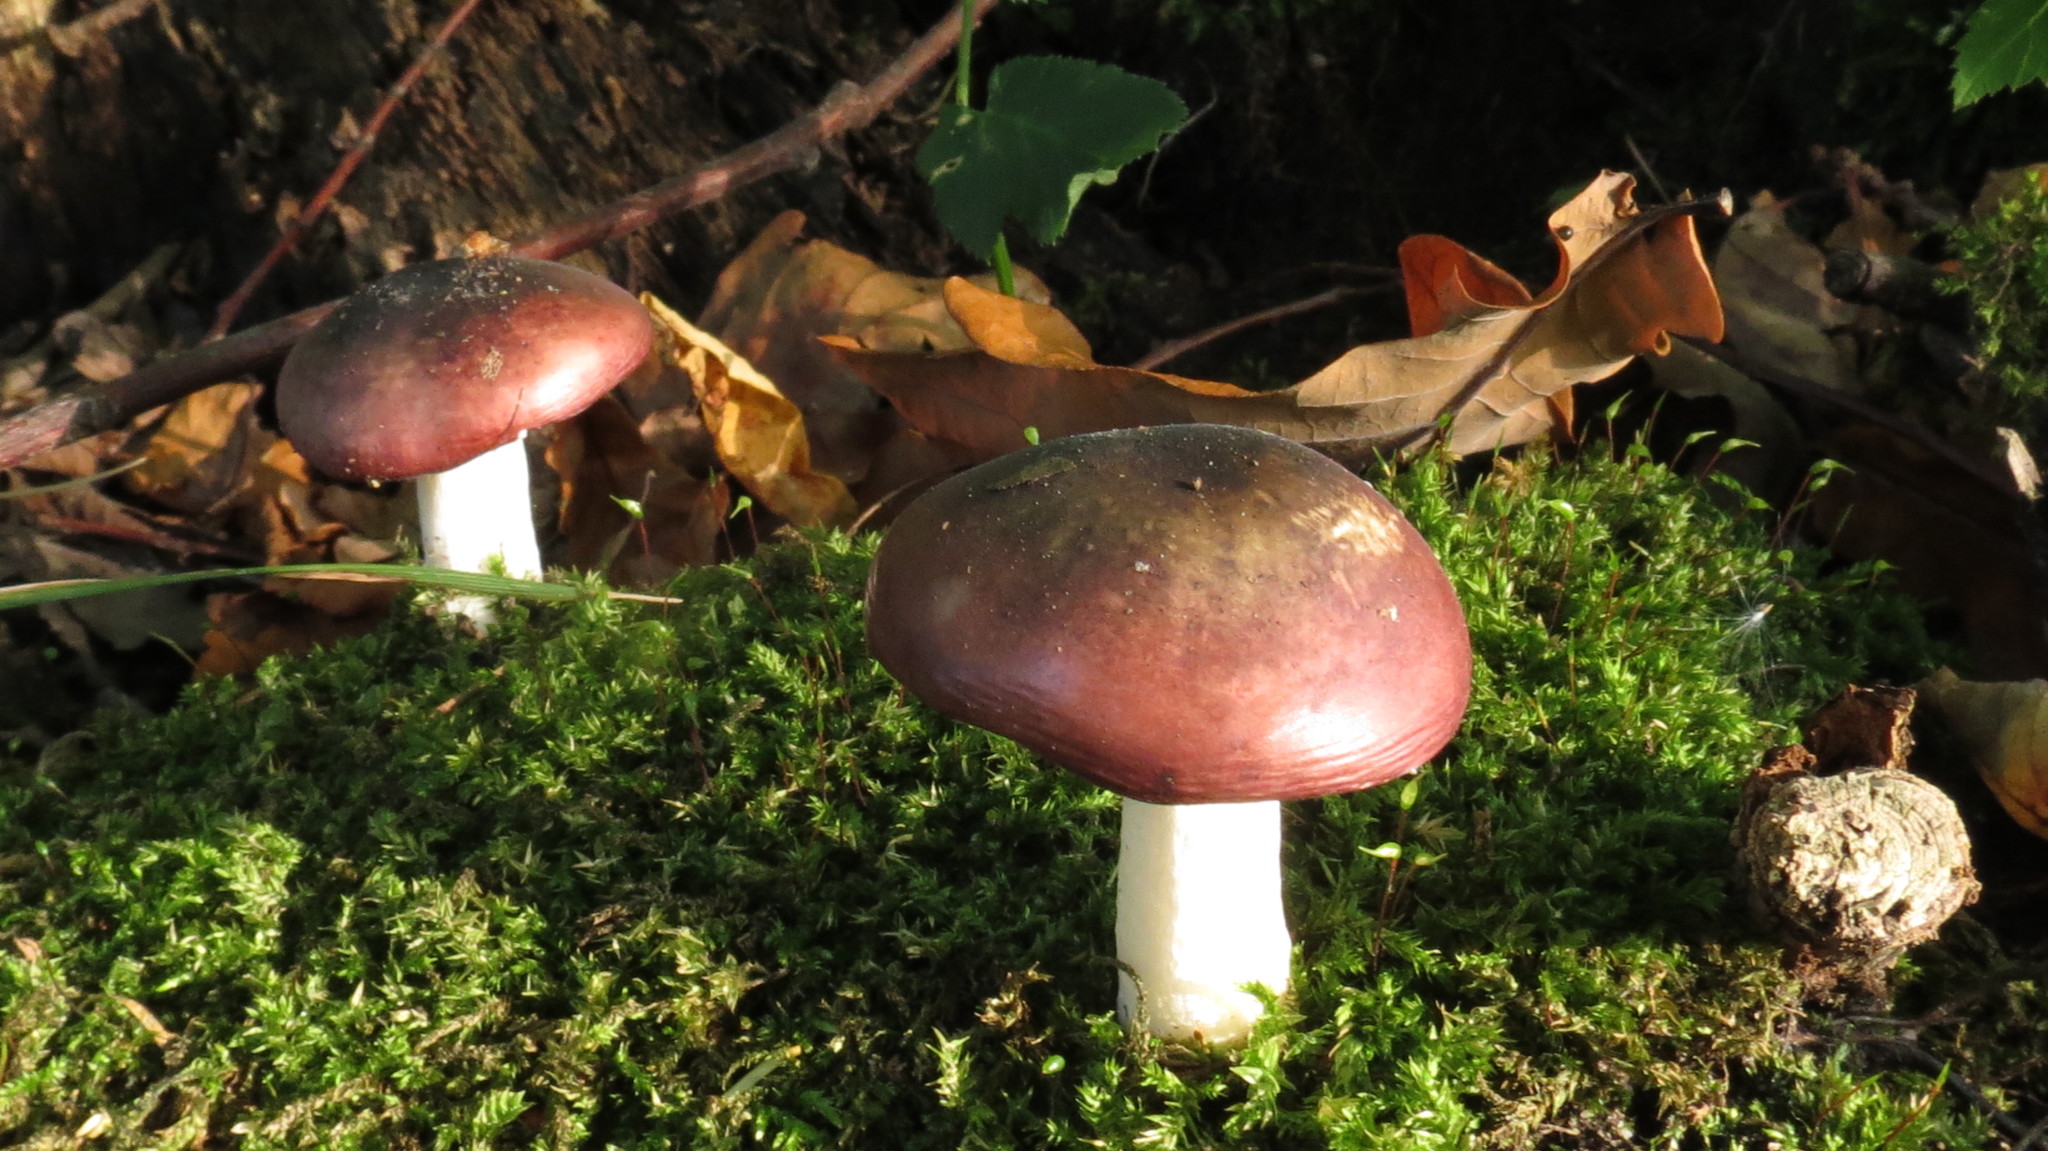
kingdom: Fungi
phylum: Basidiomycota
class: Agaricomycetes
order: Russulales
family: Russulaceae
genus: Russula
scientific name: Russula
